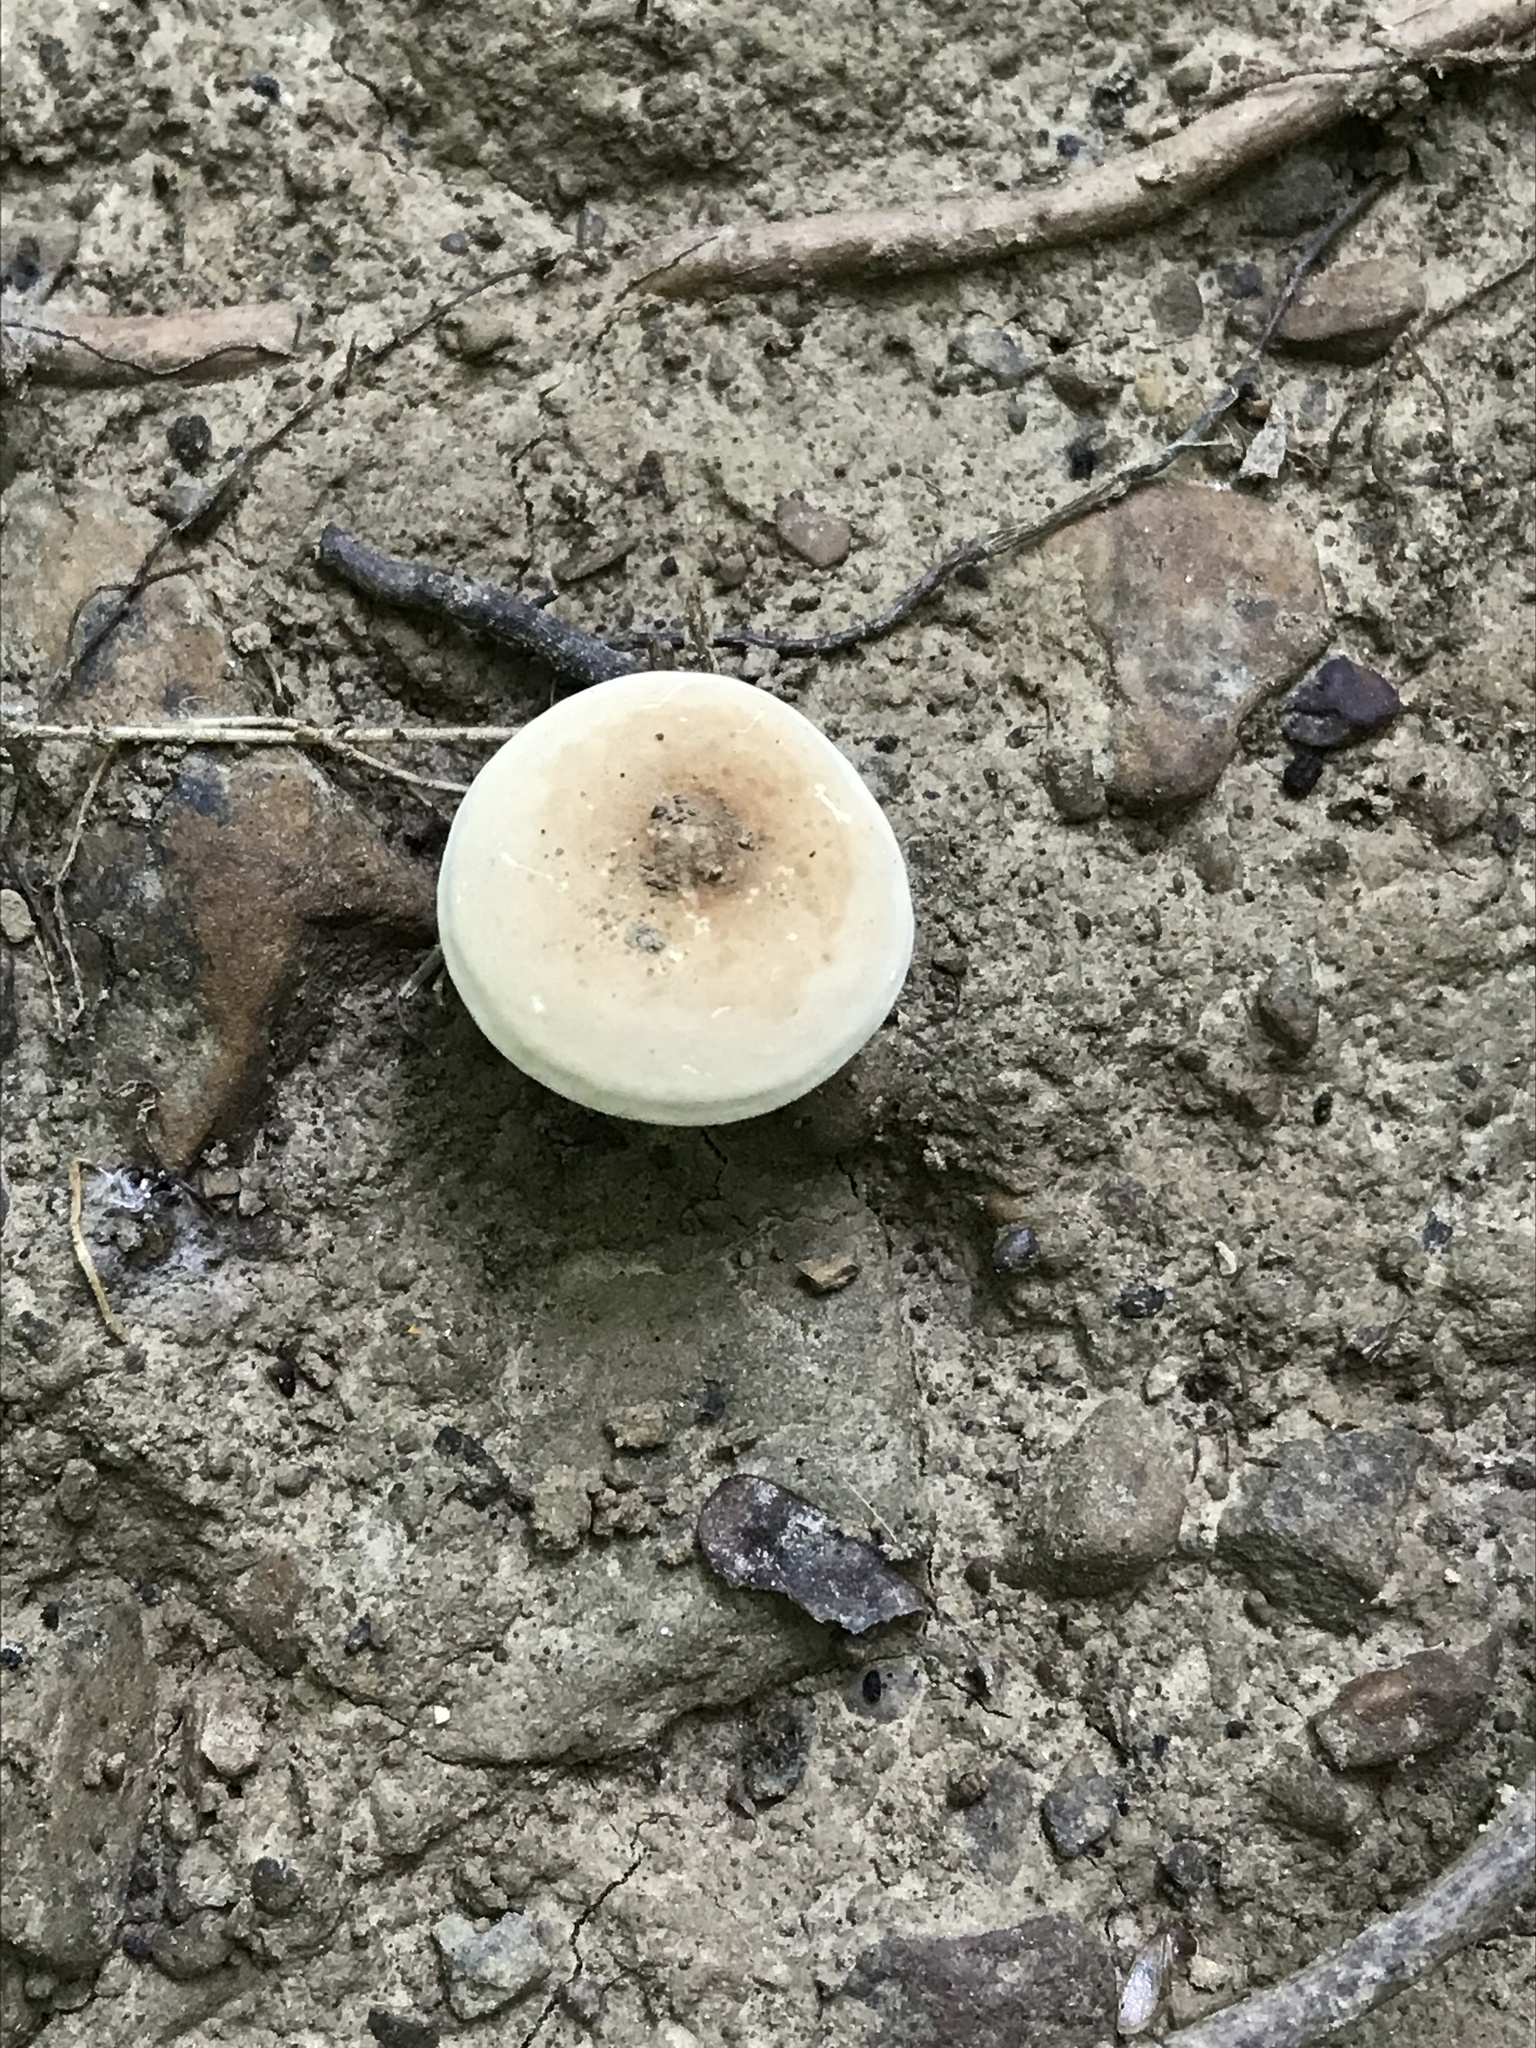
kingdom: Fungi
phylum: Basidiomycota
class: Agaricomycetes
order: Russulales
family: Russulaceae
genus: Lactarius
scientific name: Lactarius subvernalis
